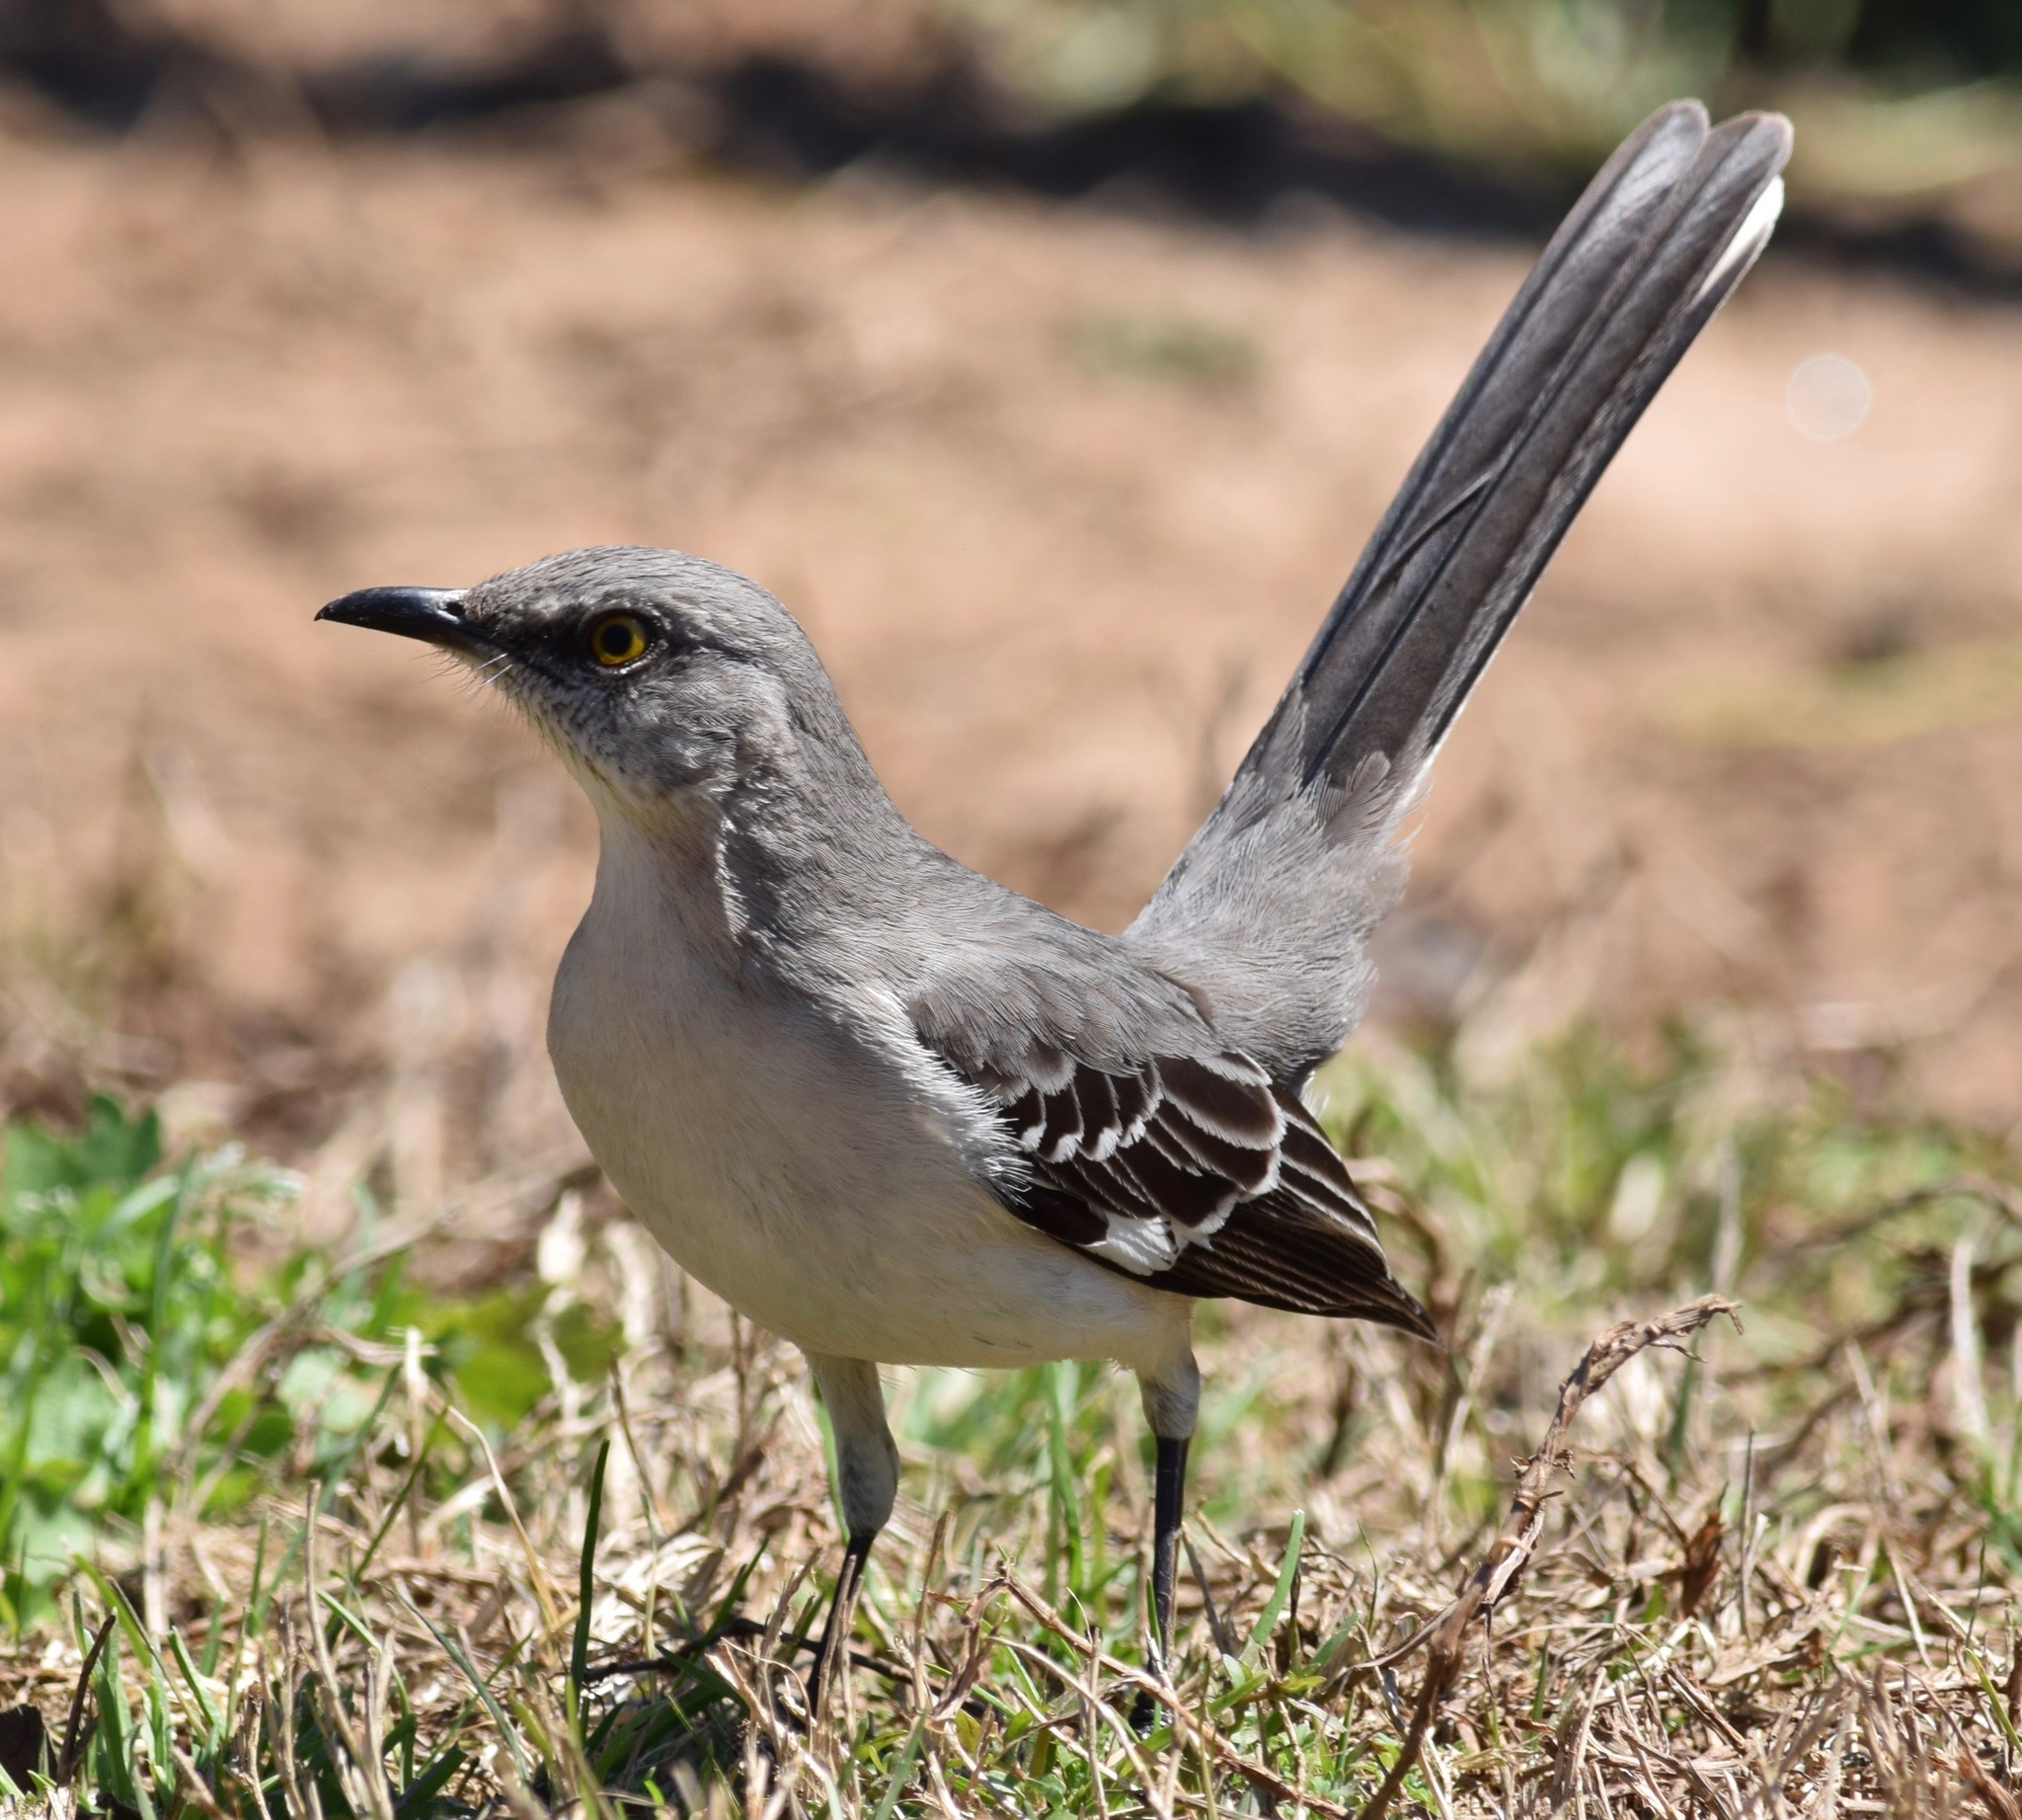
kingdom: Animalia
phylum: Chordata
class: Aves
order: Passeriformes
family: Mimidae
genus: Mimus
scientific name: Mimus polyglottos
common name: Northern mockingbird
